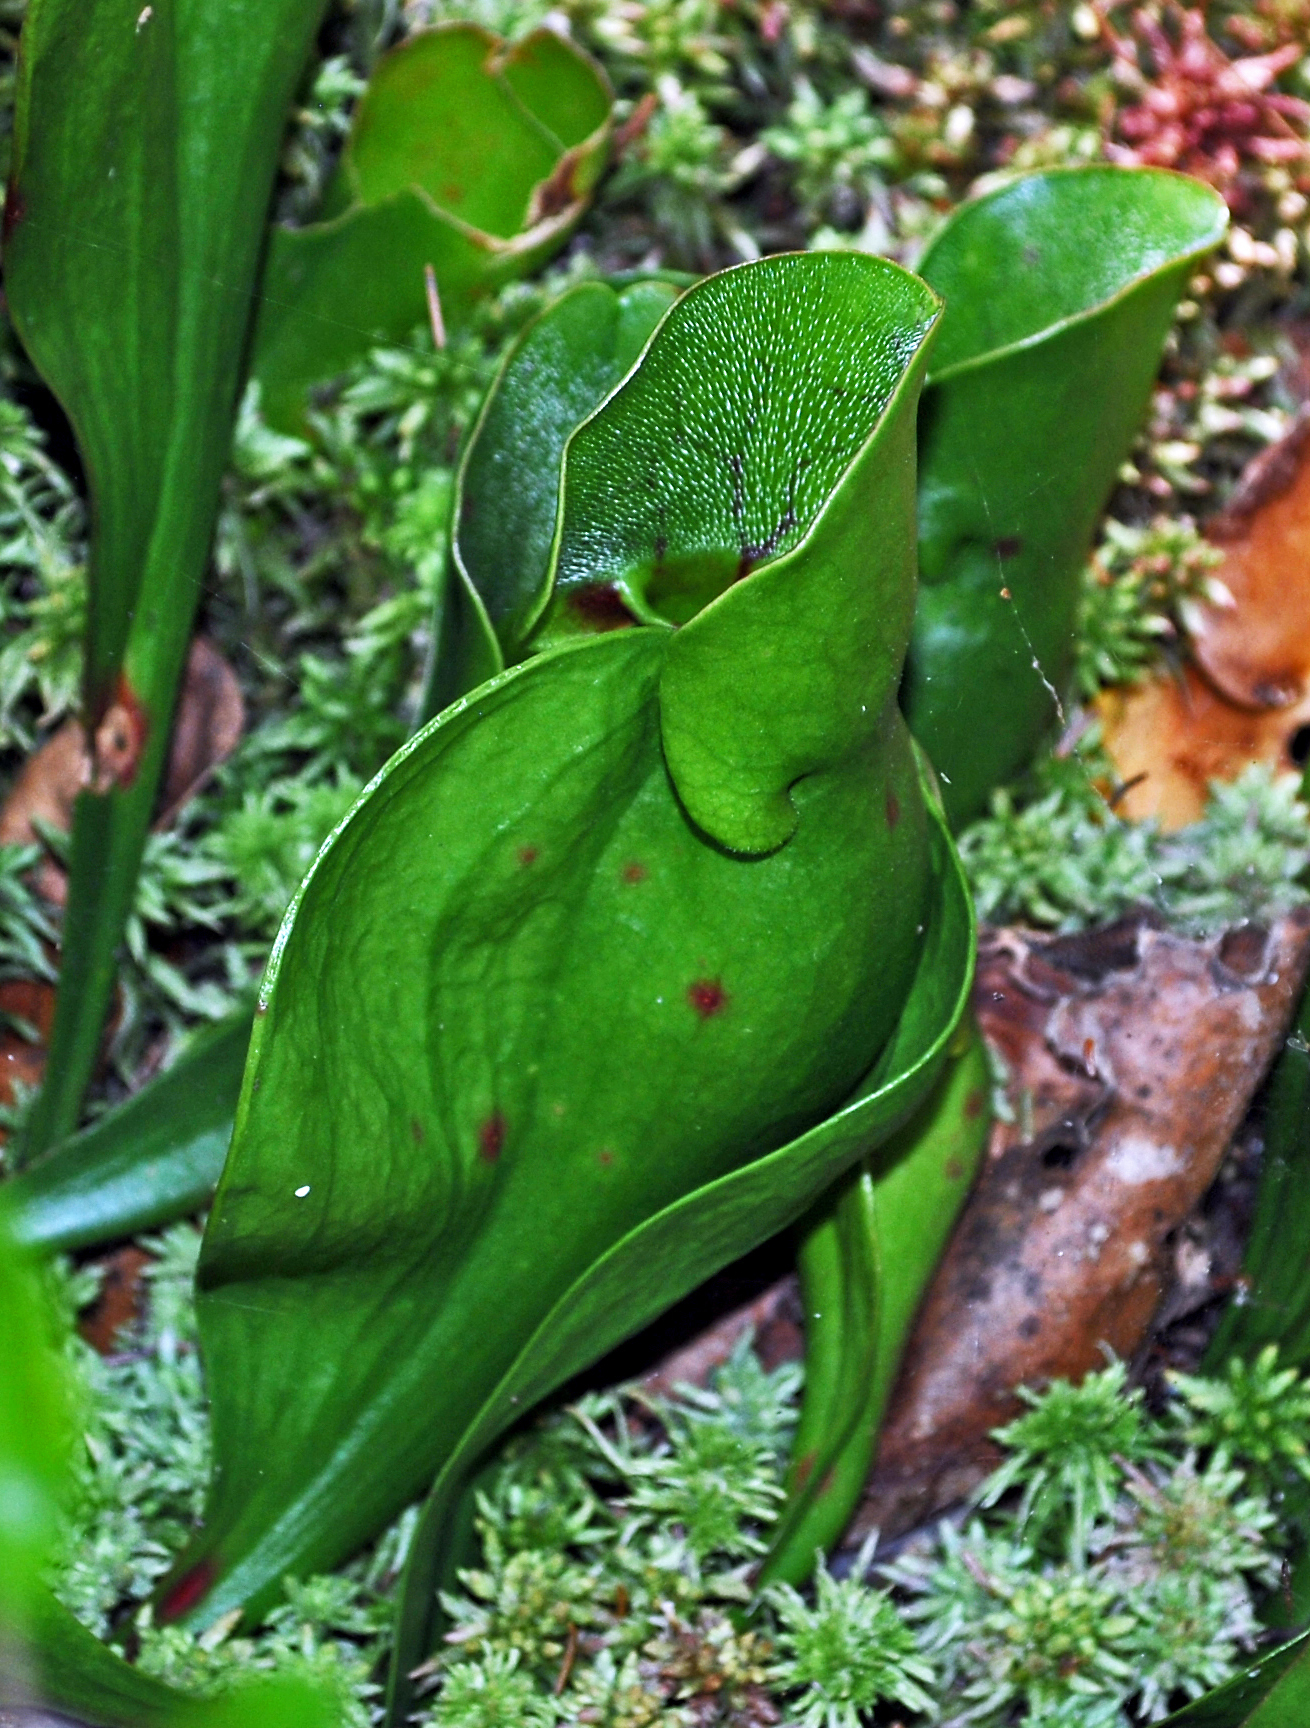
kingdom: Plantae
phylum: Tracheophyta
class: Magnoliopsida
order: Ericales
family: Sarraceniaceae
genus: Sarracenia
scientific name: Sarracenia purpurea
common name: Pitcherplant
